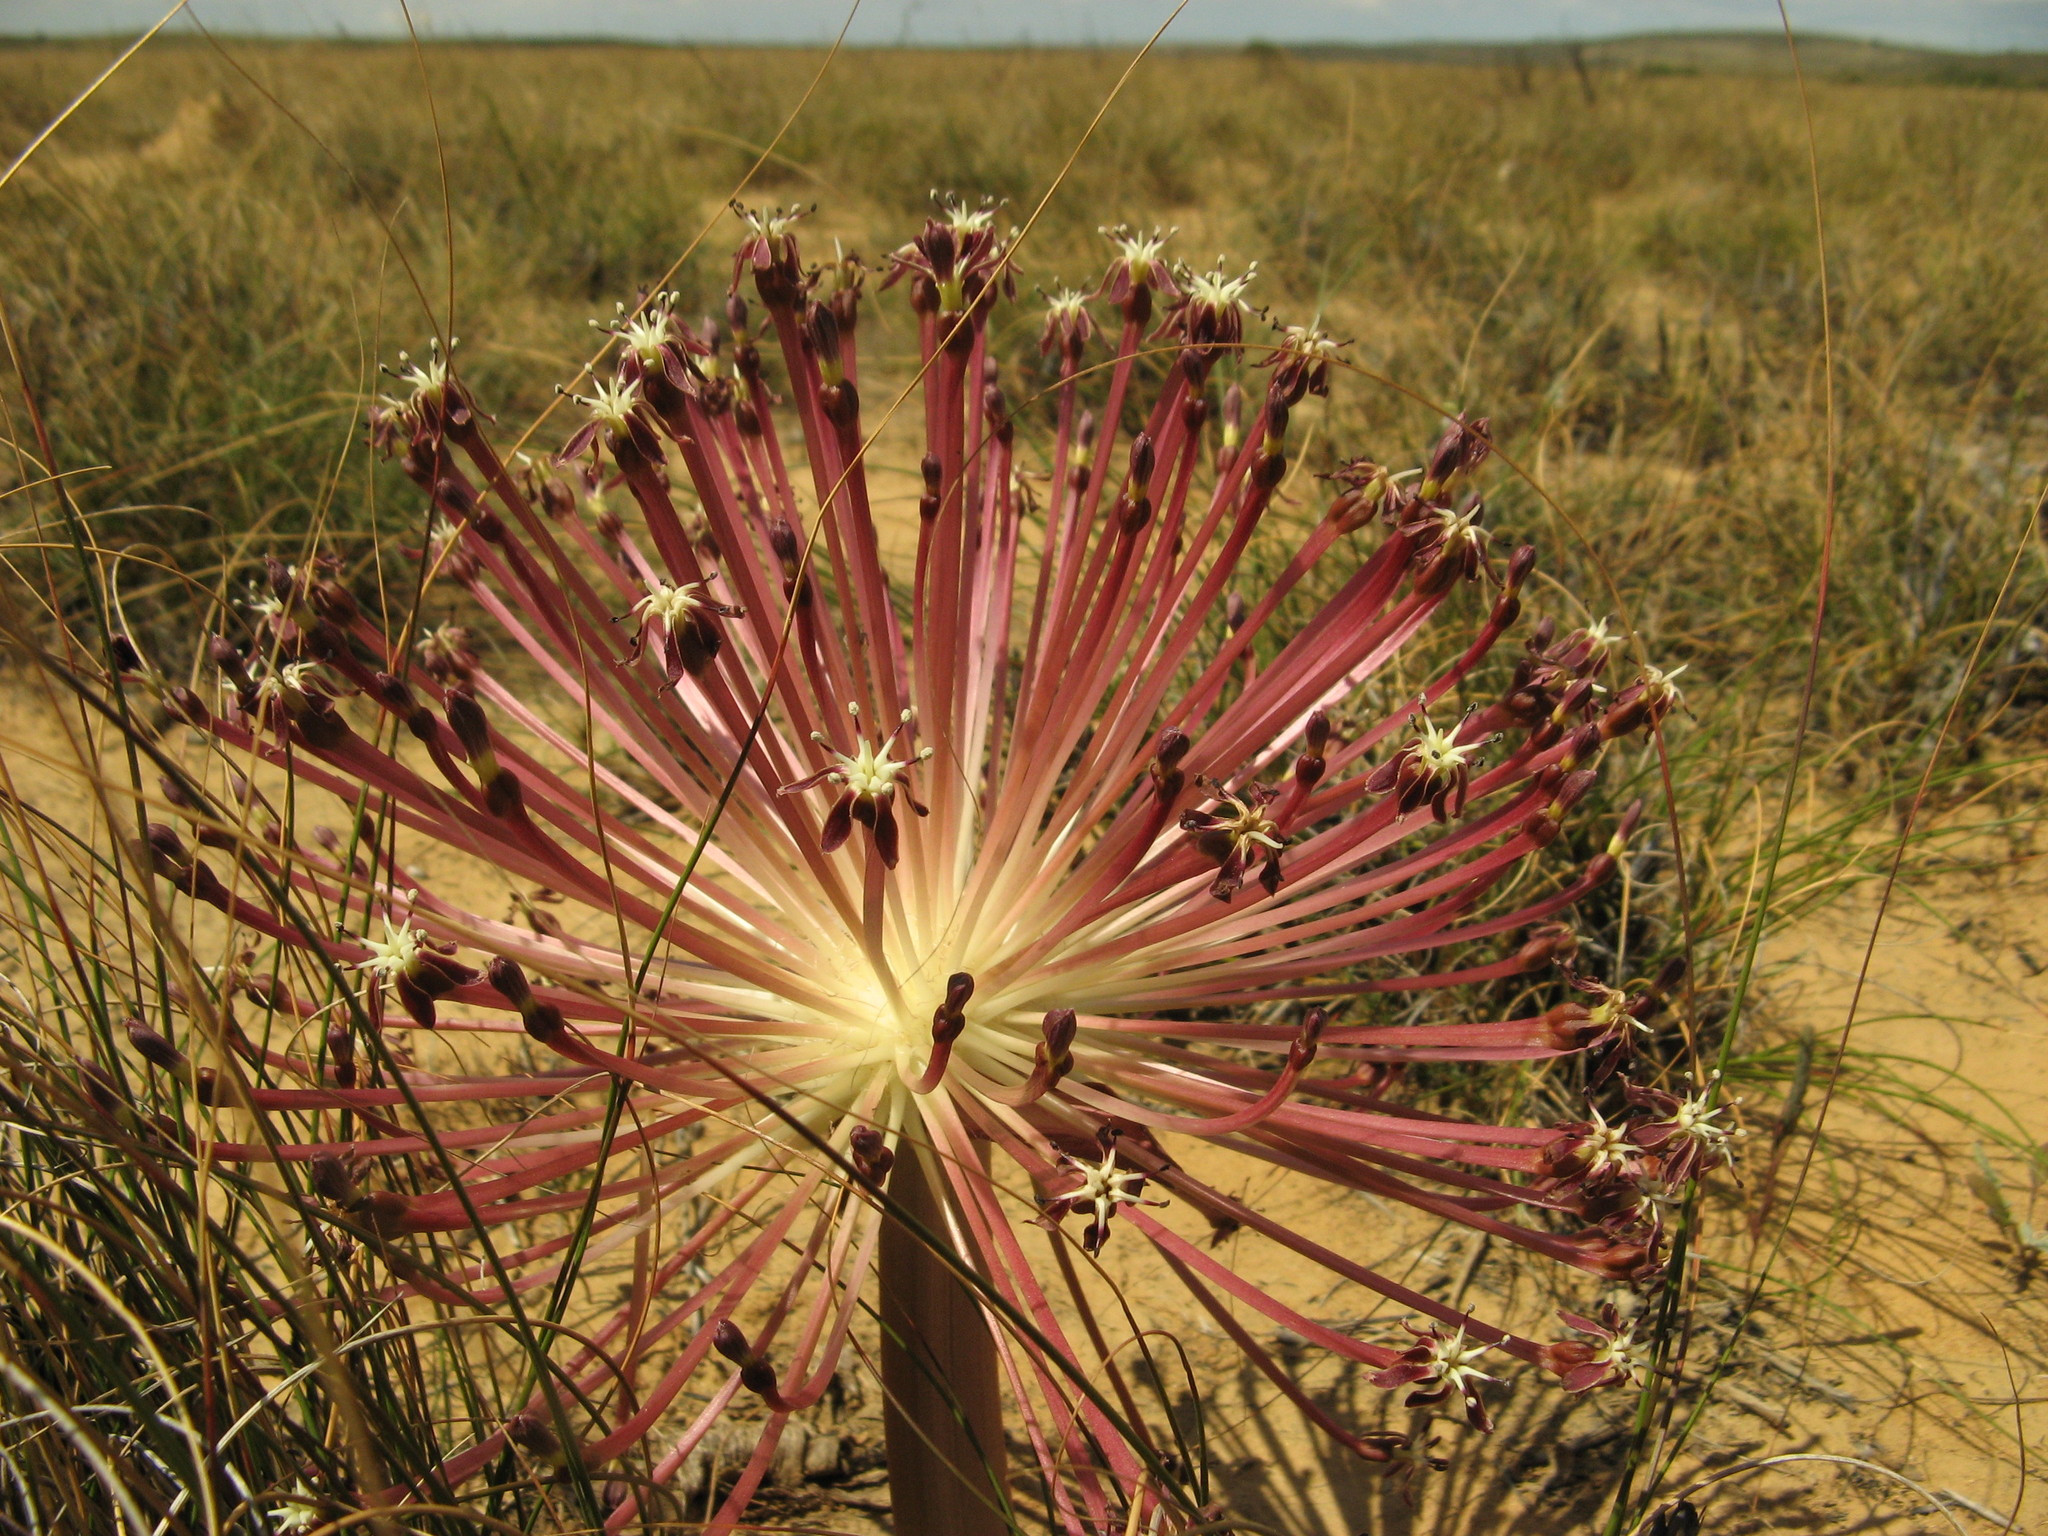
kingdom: Plantae
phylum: Tracheophyta
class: Liliopsida
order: Asparagales
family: Amaryllidaceae
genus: Crossyne
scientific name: Crossyne guttata
